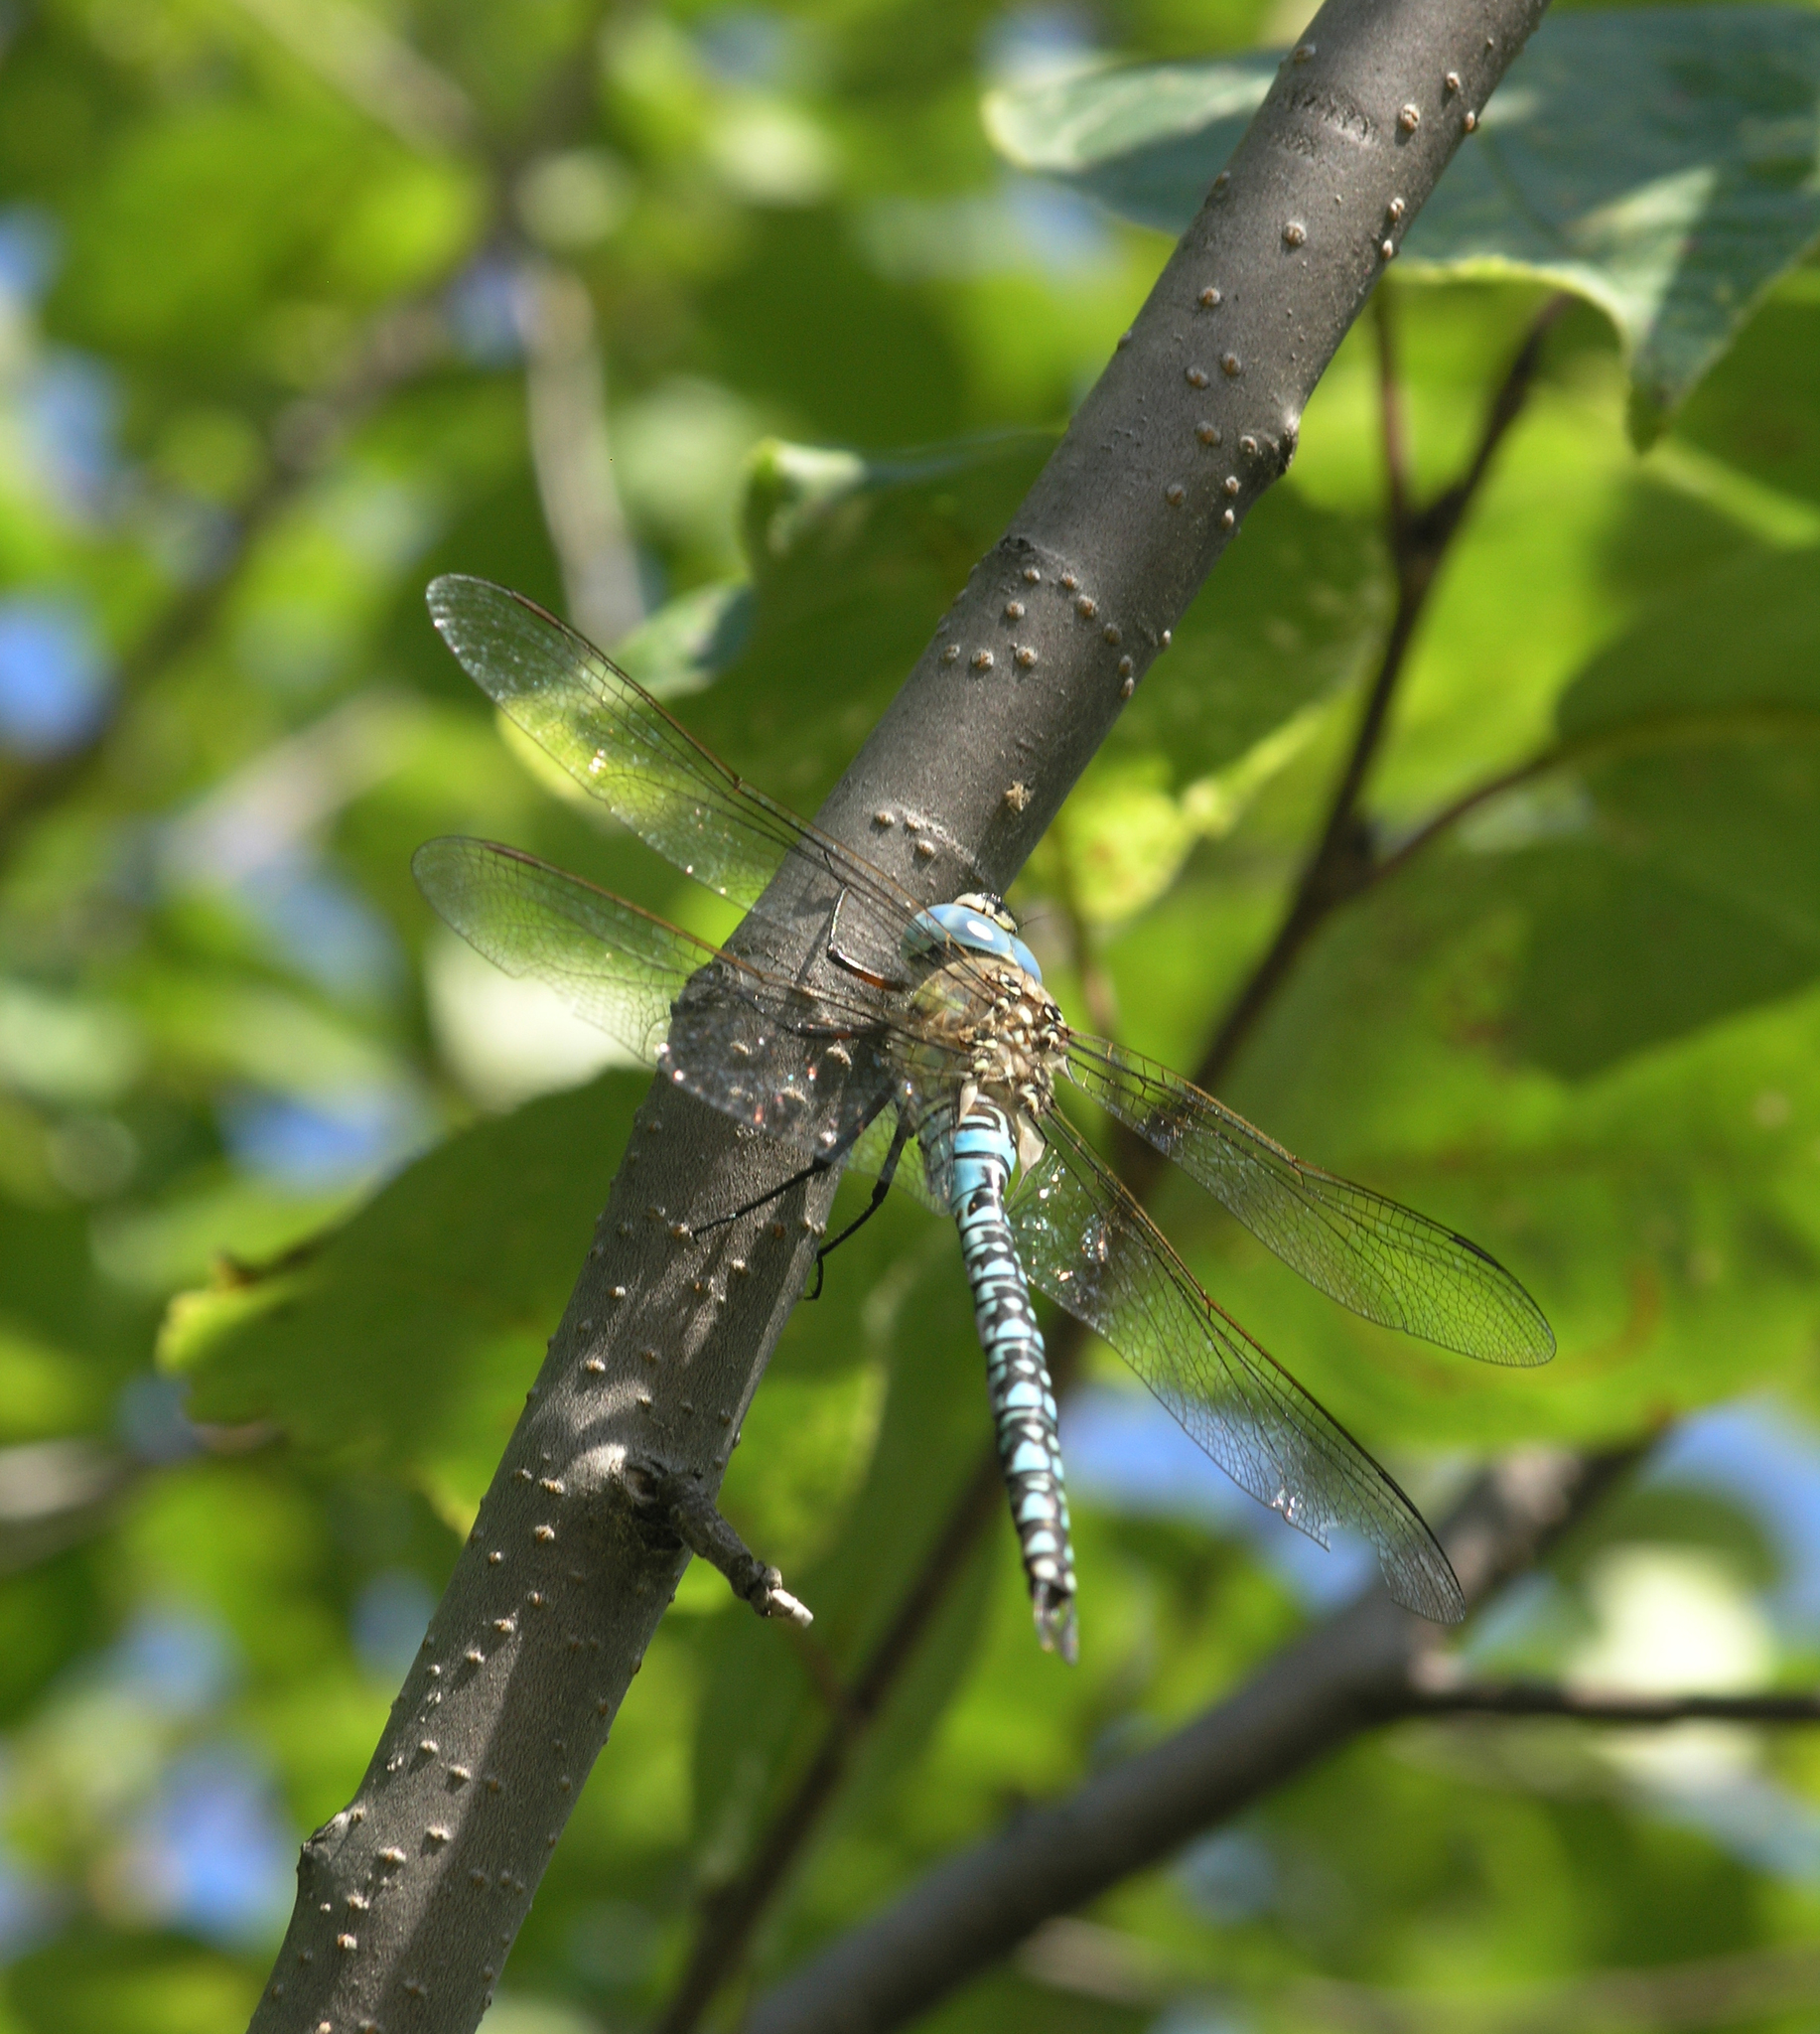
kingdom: Animalia
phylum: Arthropoda
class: Insecta
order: Odonata
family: Aeshnidae
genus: Aeshna
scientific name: Aeshna soneharai
